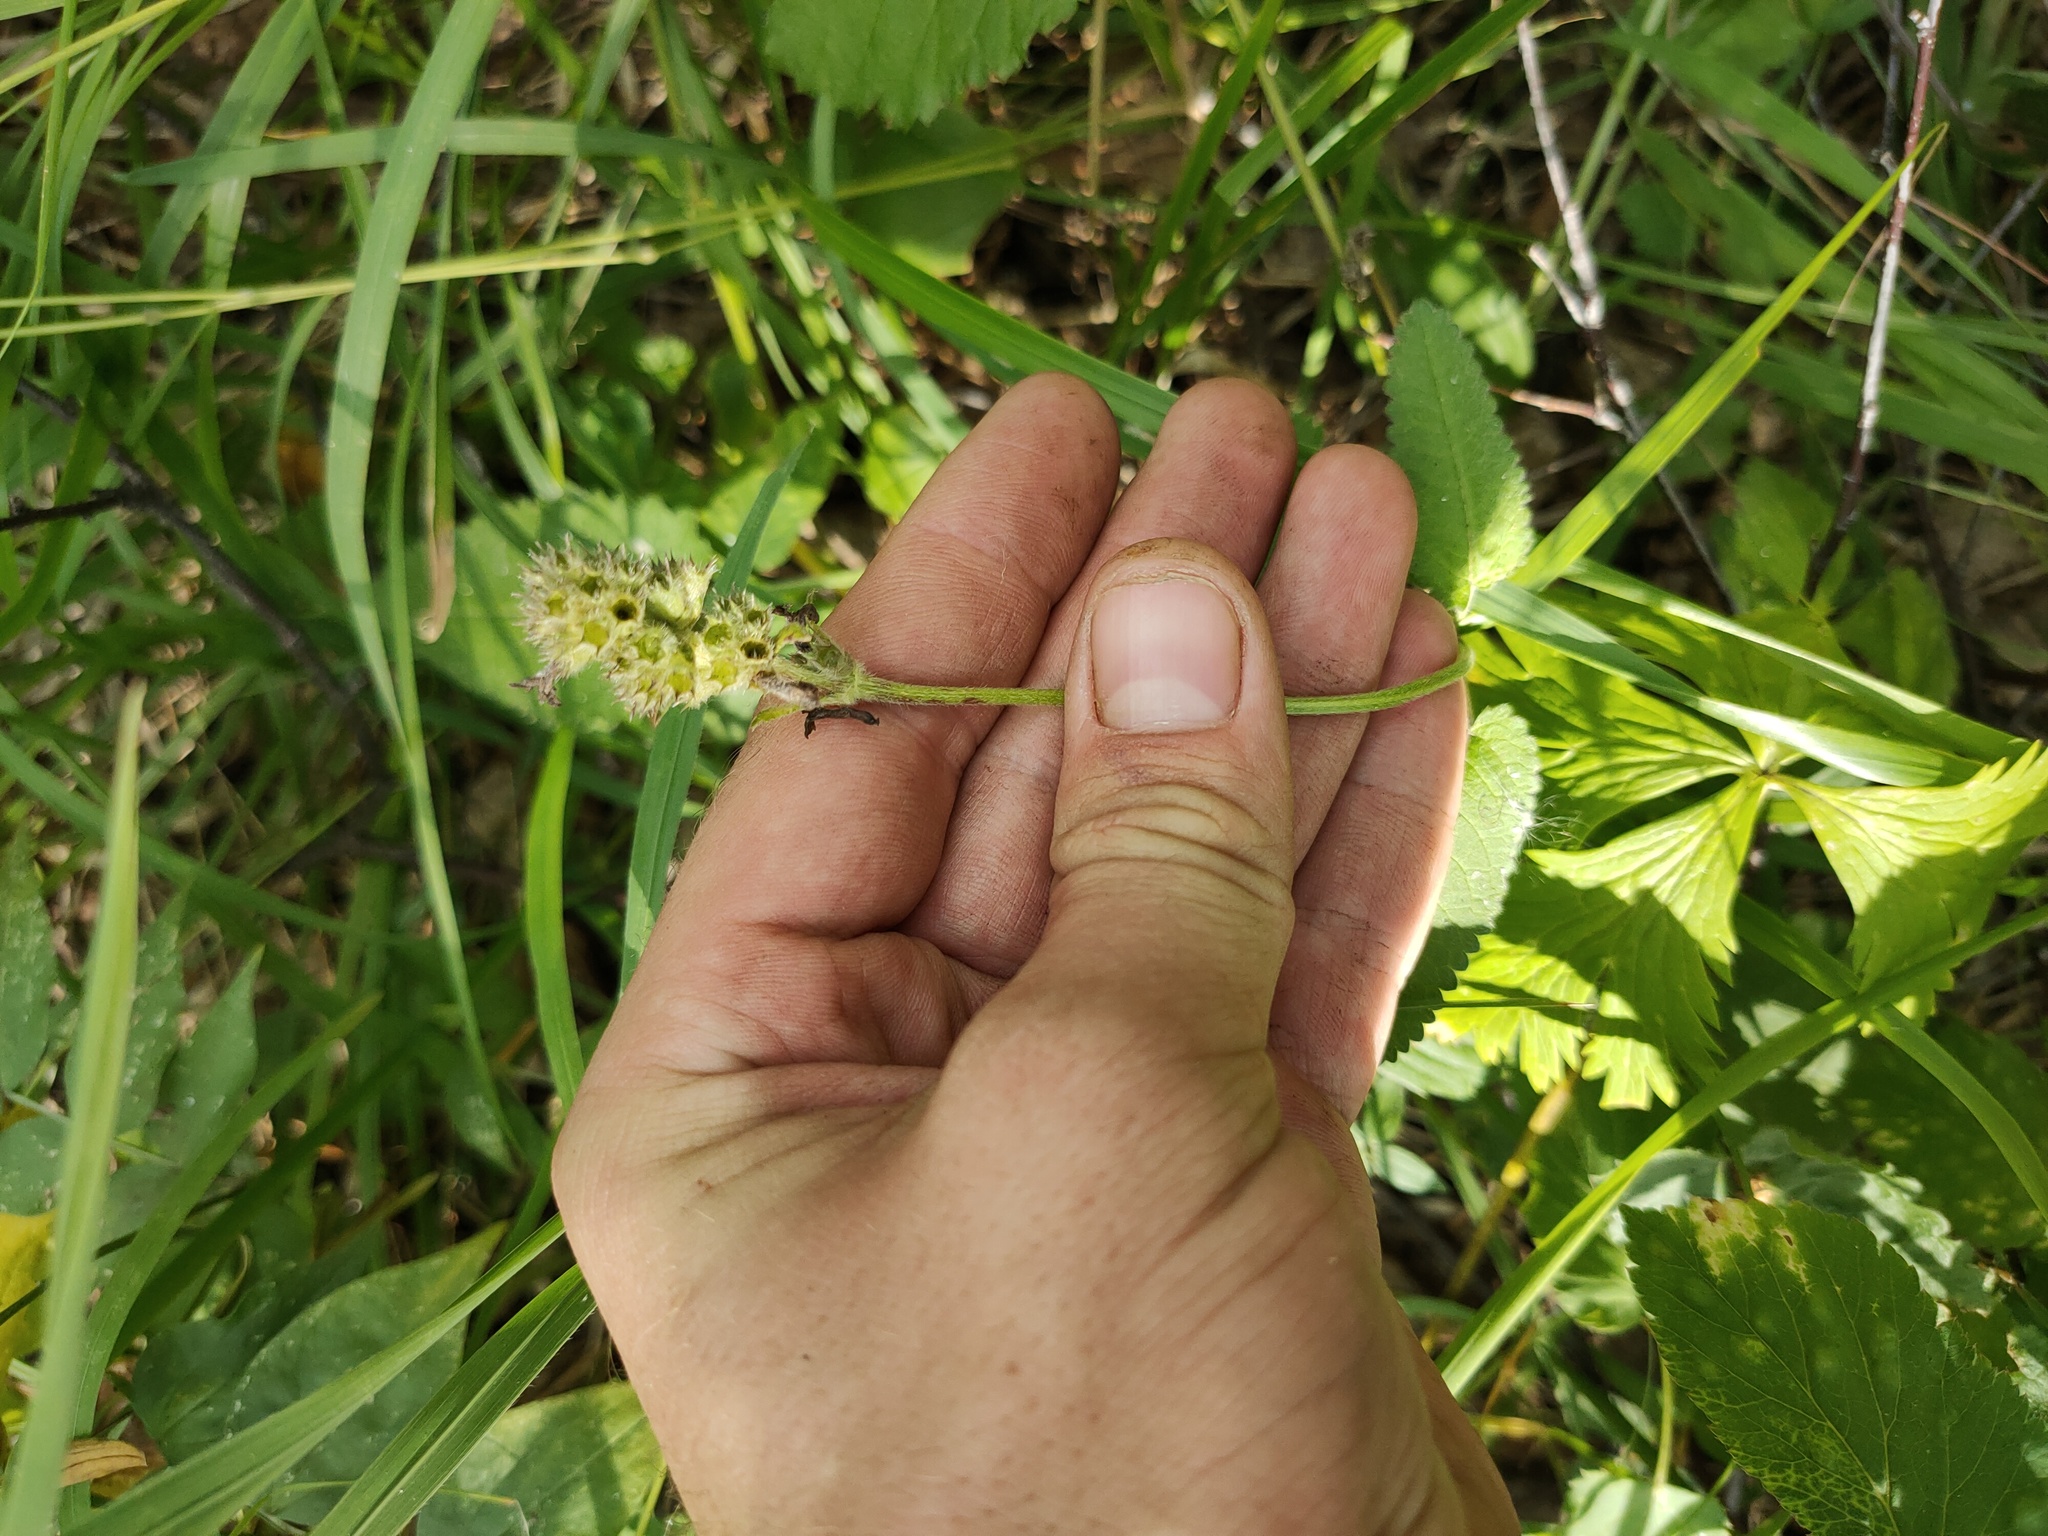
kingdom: Plantae
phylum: Tracheophyta
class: Magnoliopsida
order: Lamiales
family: Lamiaceae
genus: Betonica
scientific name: Betonica officinalis
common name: Bishop's-wort
